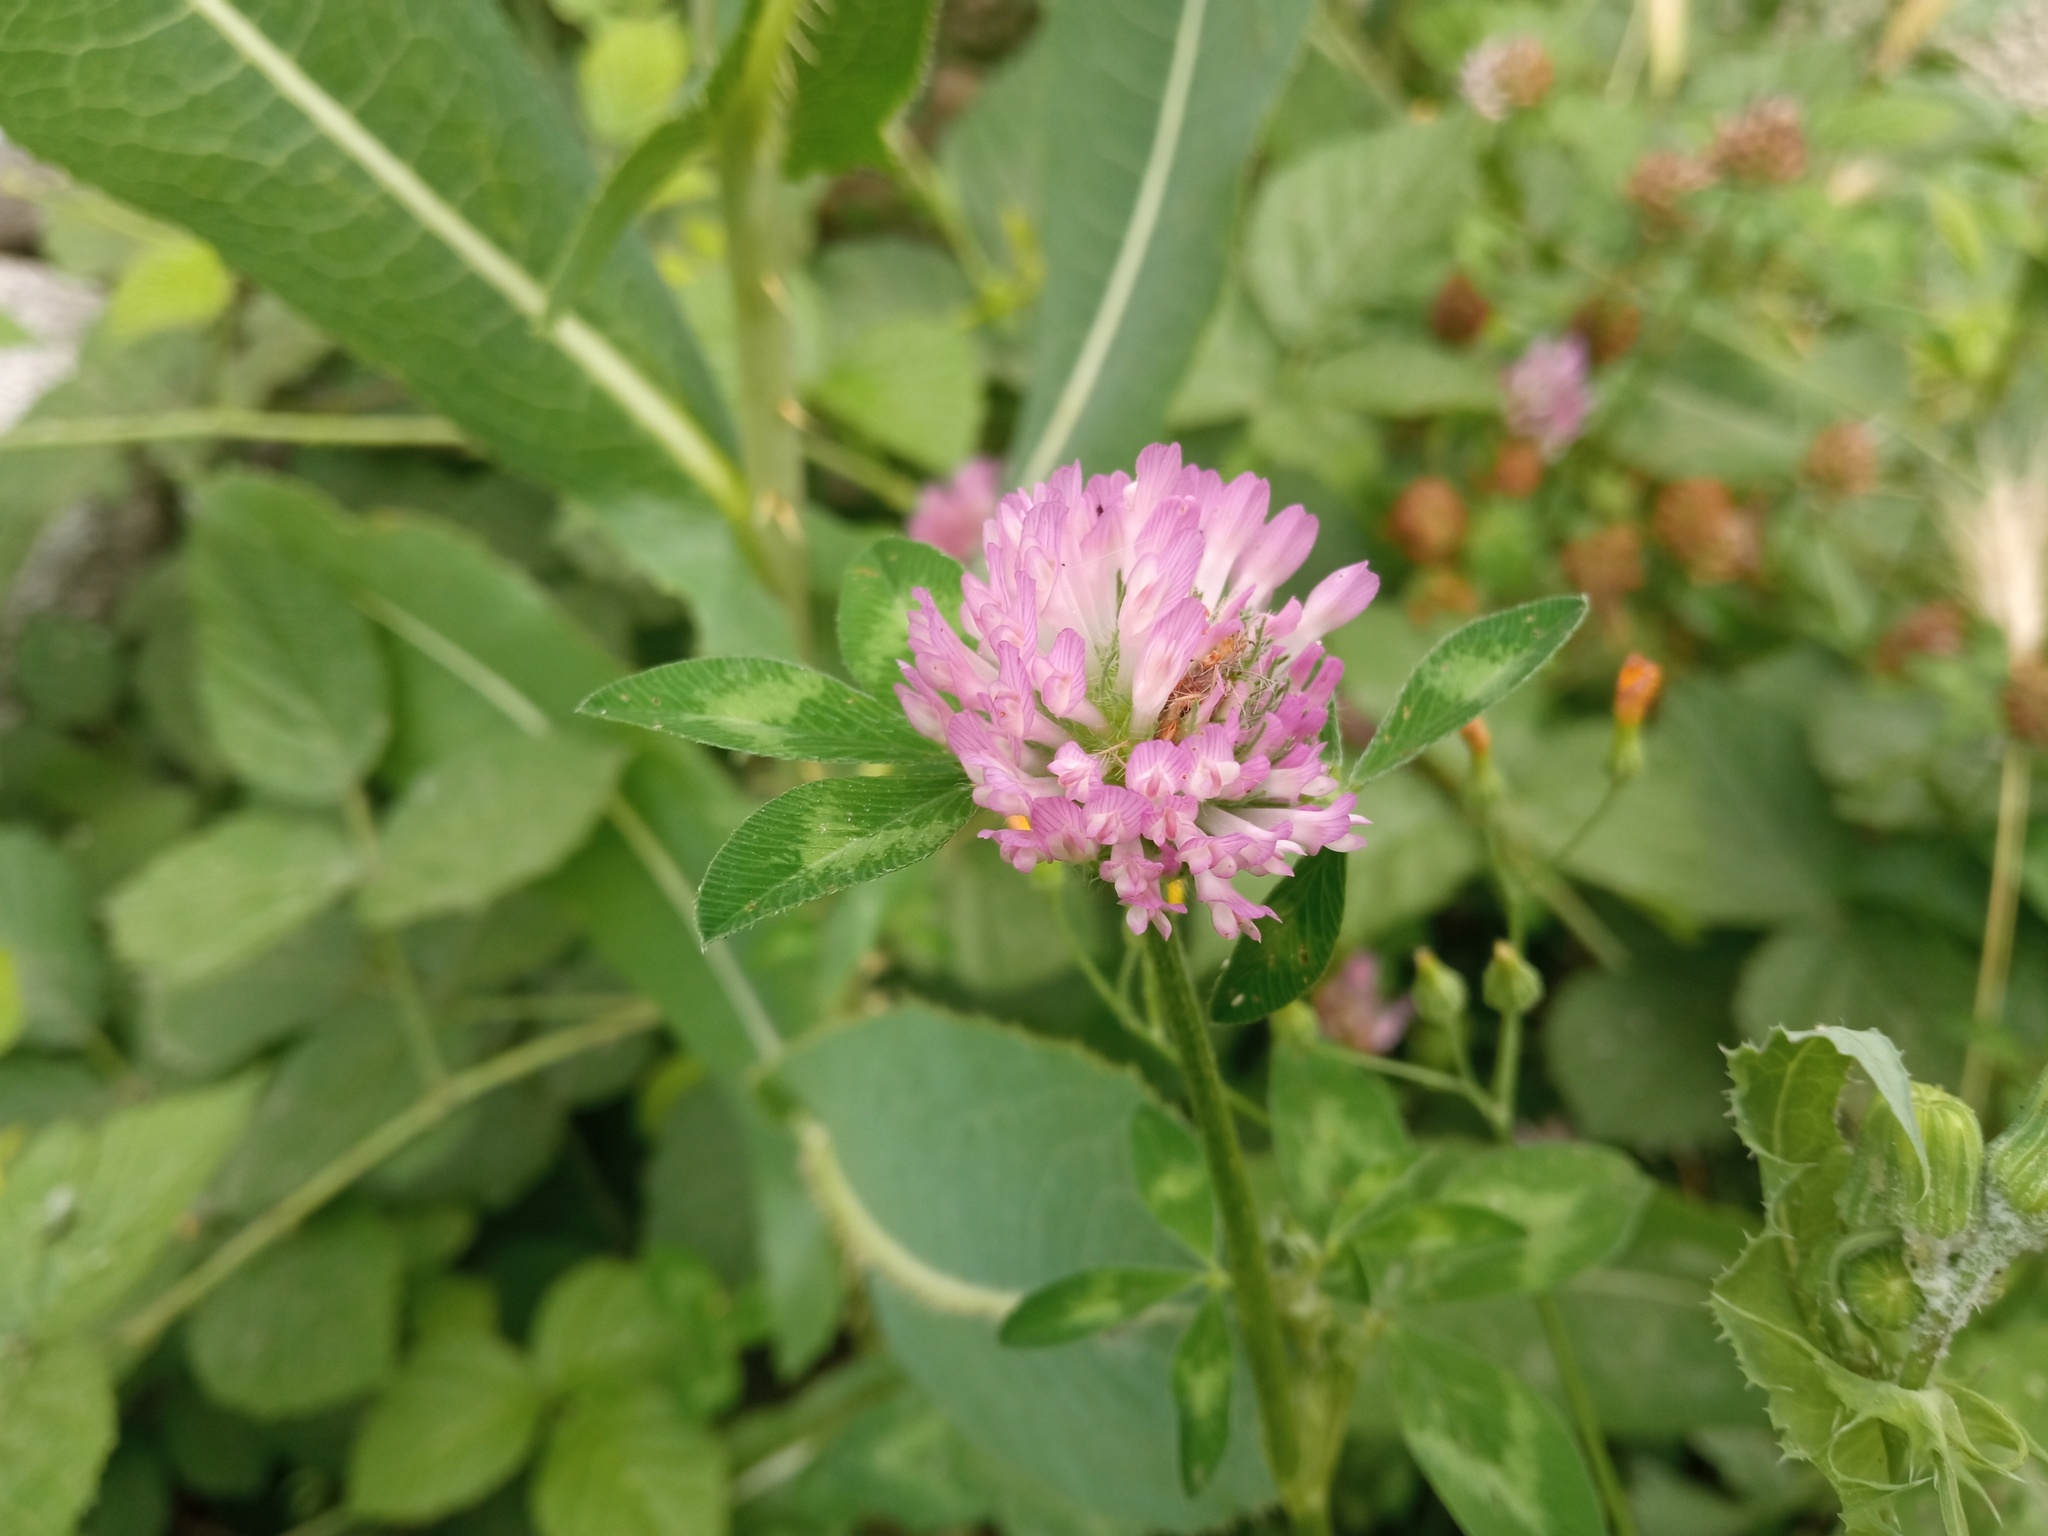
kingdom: Plantae
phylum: Tracheophyta
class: Magnoliopsida
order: Fabales
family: Fabaceae
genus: Trifolium
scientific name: Trifolium pratense
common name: Red clover
